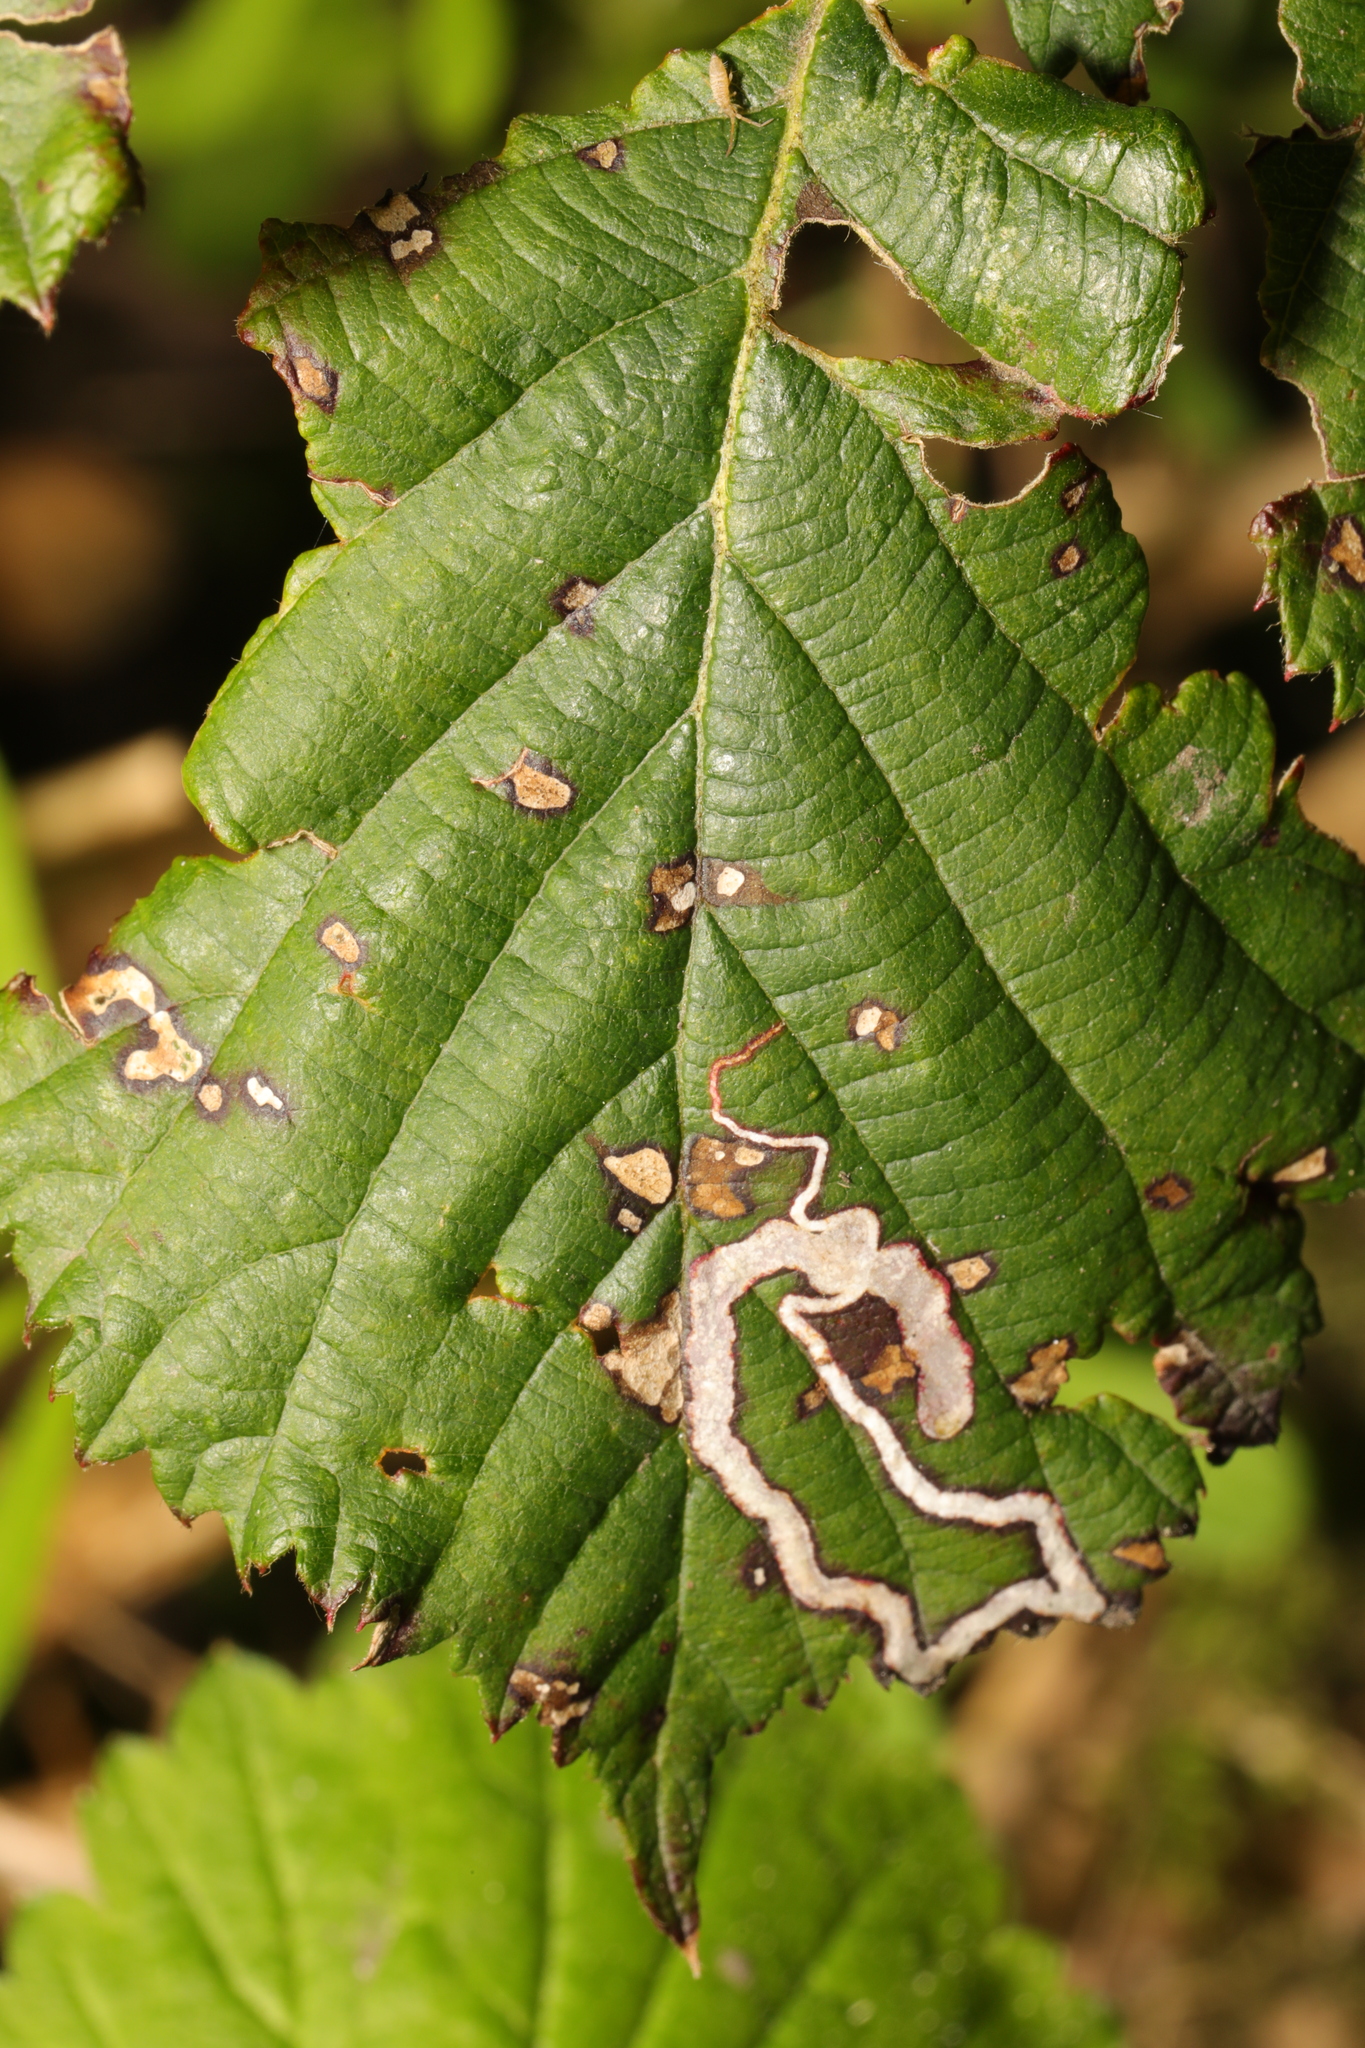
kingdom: Animalia
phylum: Arthropoda
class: Insecta
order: Lepidoptera
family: Nepticulidae
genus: Stigmella
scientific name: Stigmella aurella
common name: Golden pigmy
